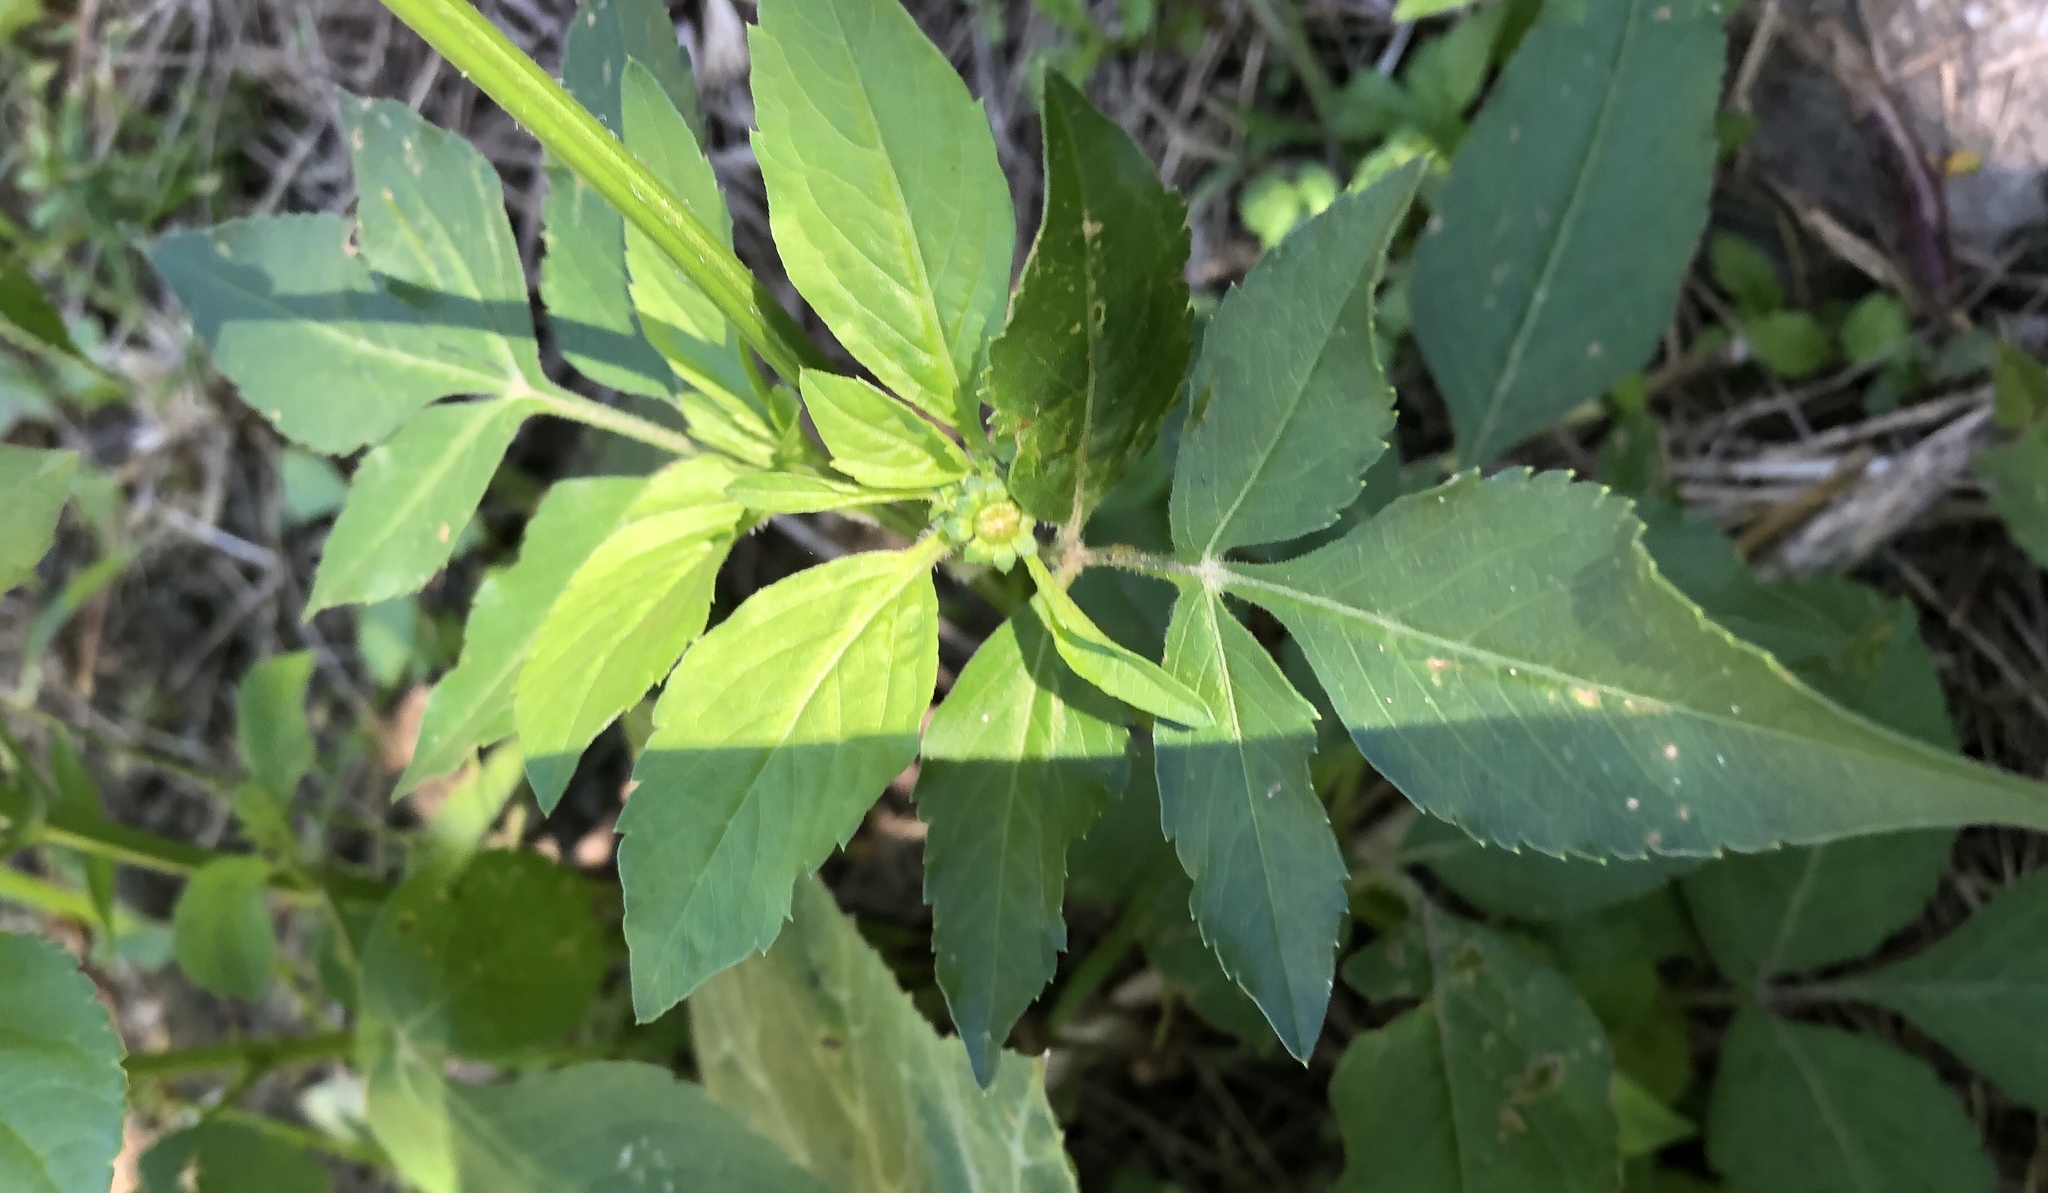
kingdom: Plantae
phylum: Tracheophyta
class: Magnoliopsida
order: Asterales
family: Asteraceae
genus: Bidens
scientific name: Bidens alba
